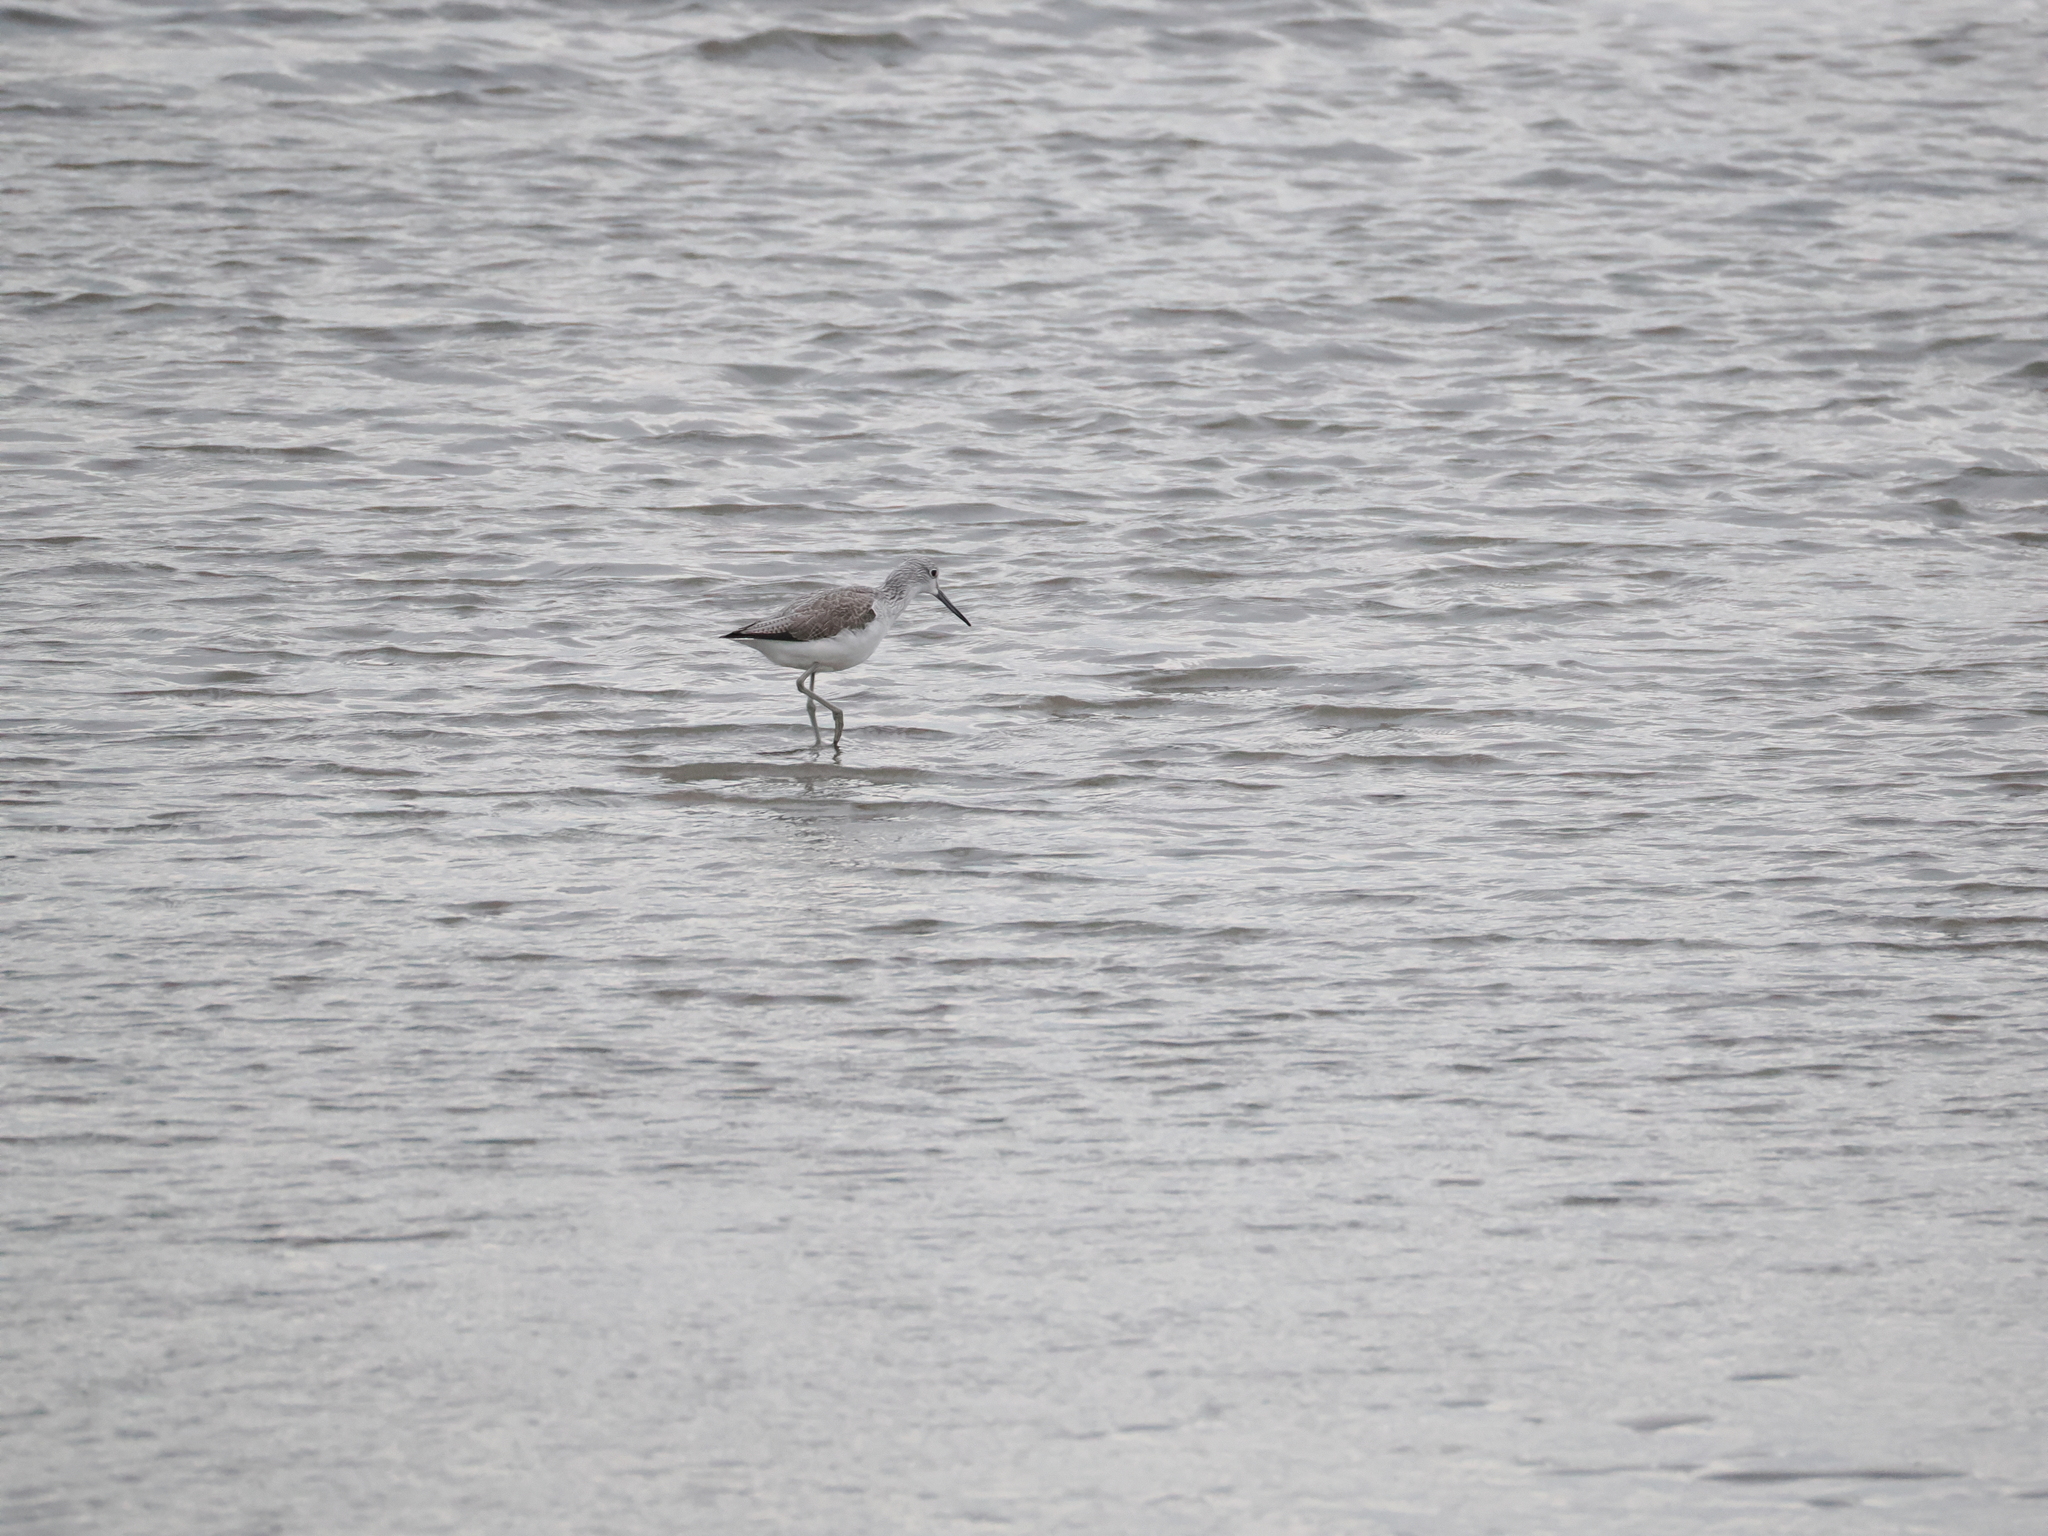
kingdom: Animalia
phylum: Chordata
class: Aves
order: Charadriiformes
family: Scolopacidae
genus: Tringa
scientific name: Tringa nebularia
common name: Common greenshank
